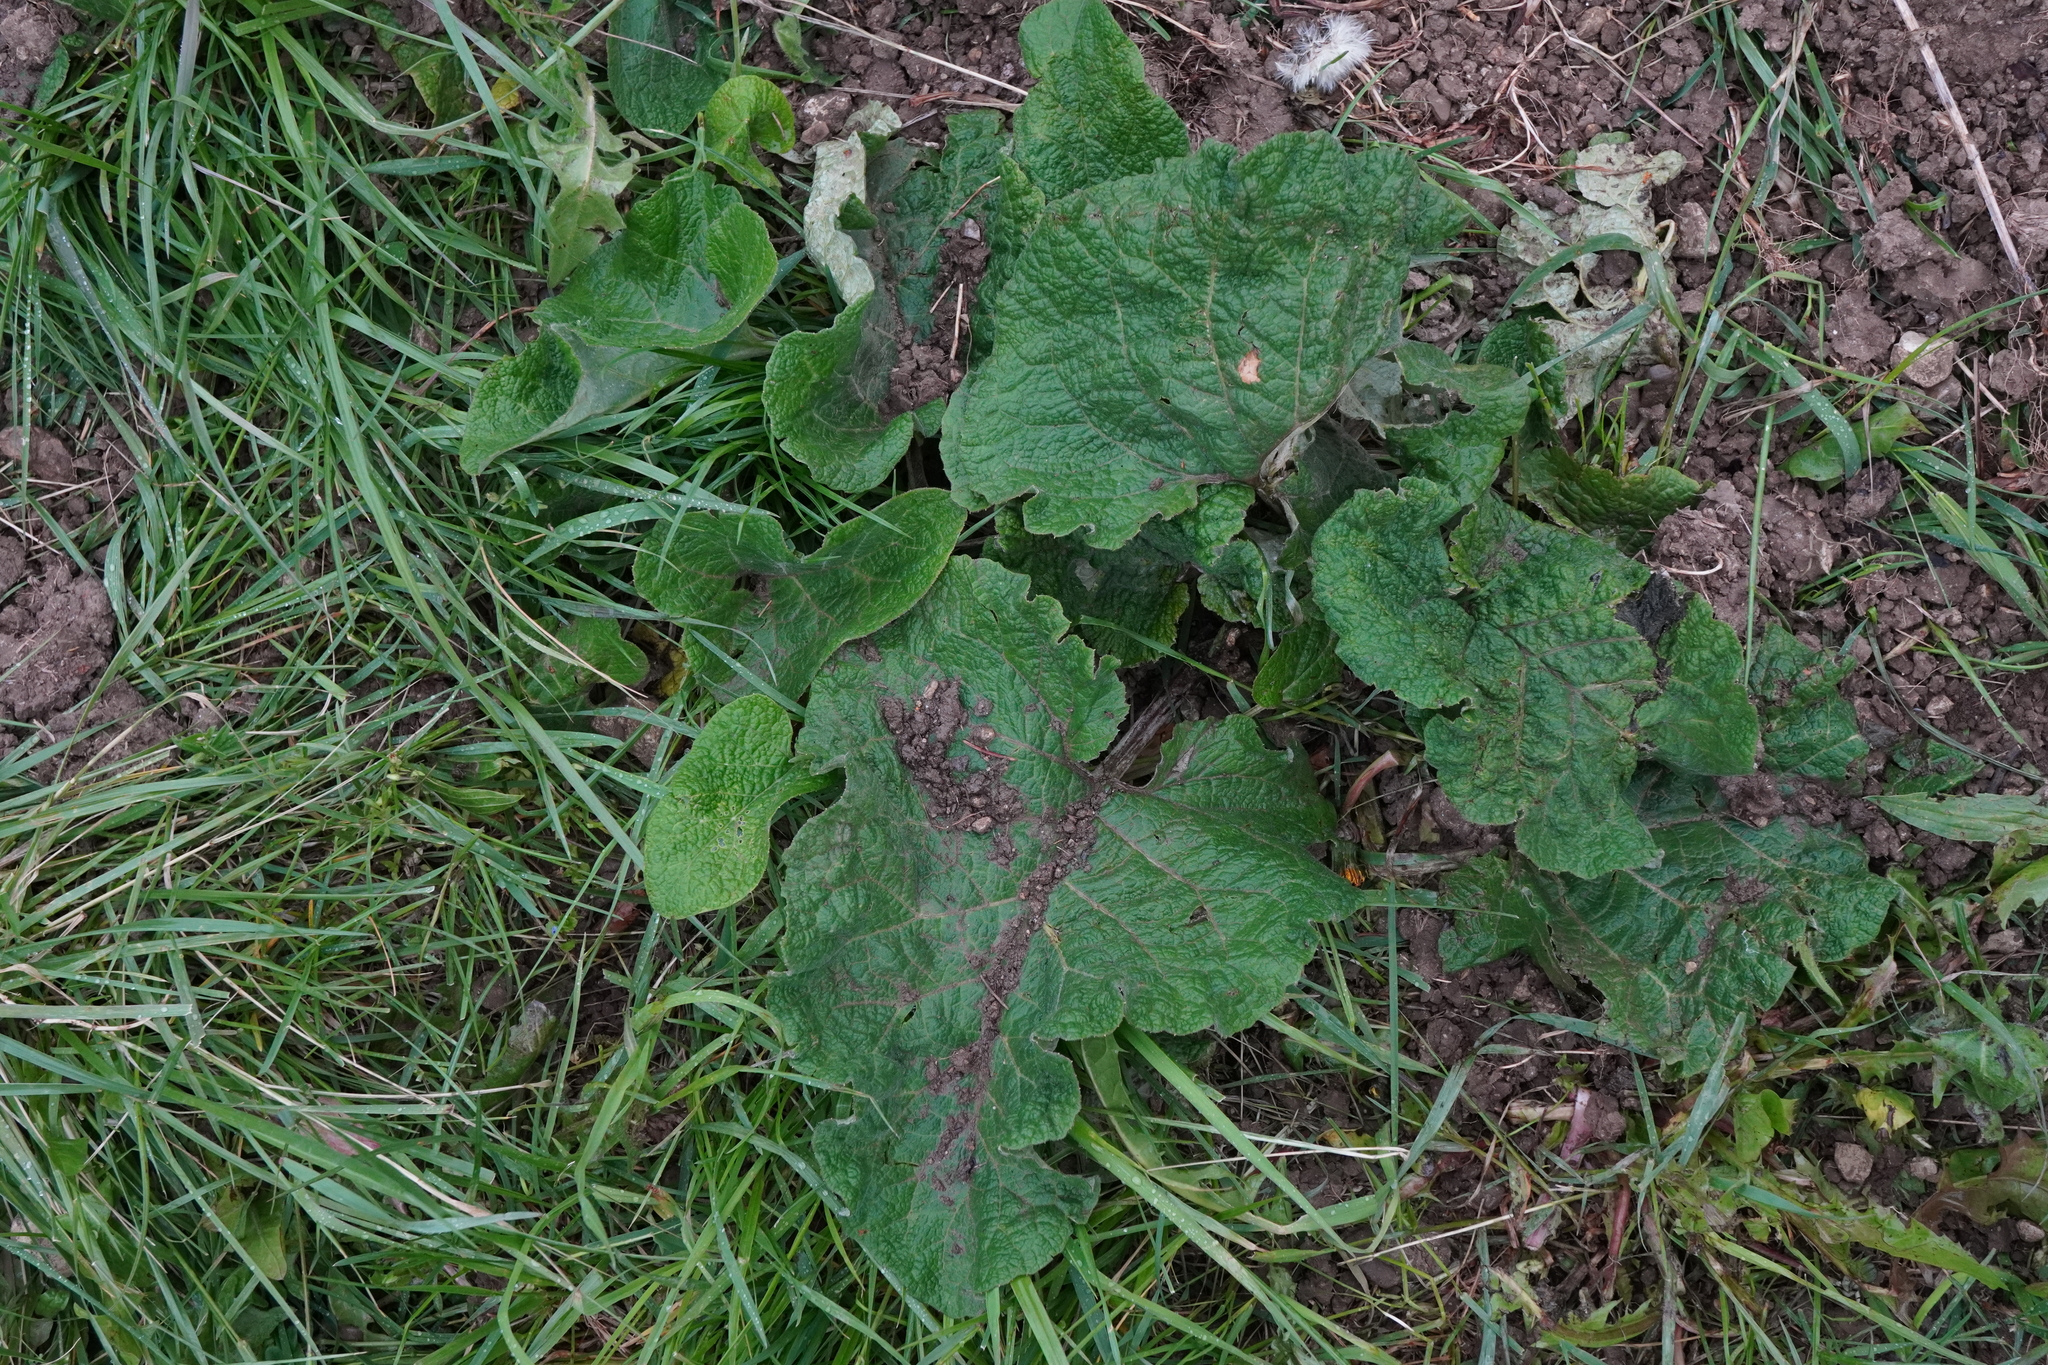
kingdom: Plantae
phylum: Tracheophyta
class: Magnoliopsida
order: Asterales
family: Asteraceae
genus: Arctium
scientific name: Arctium
